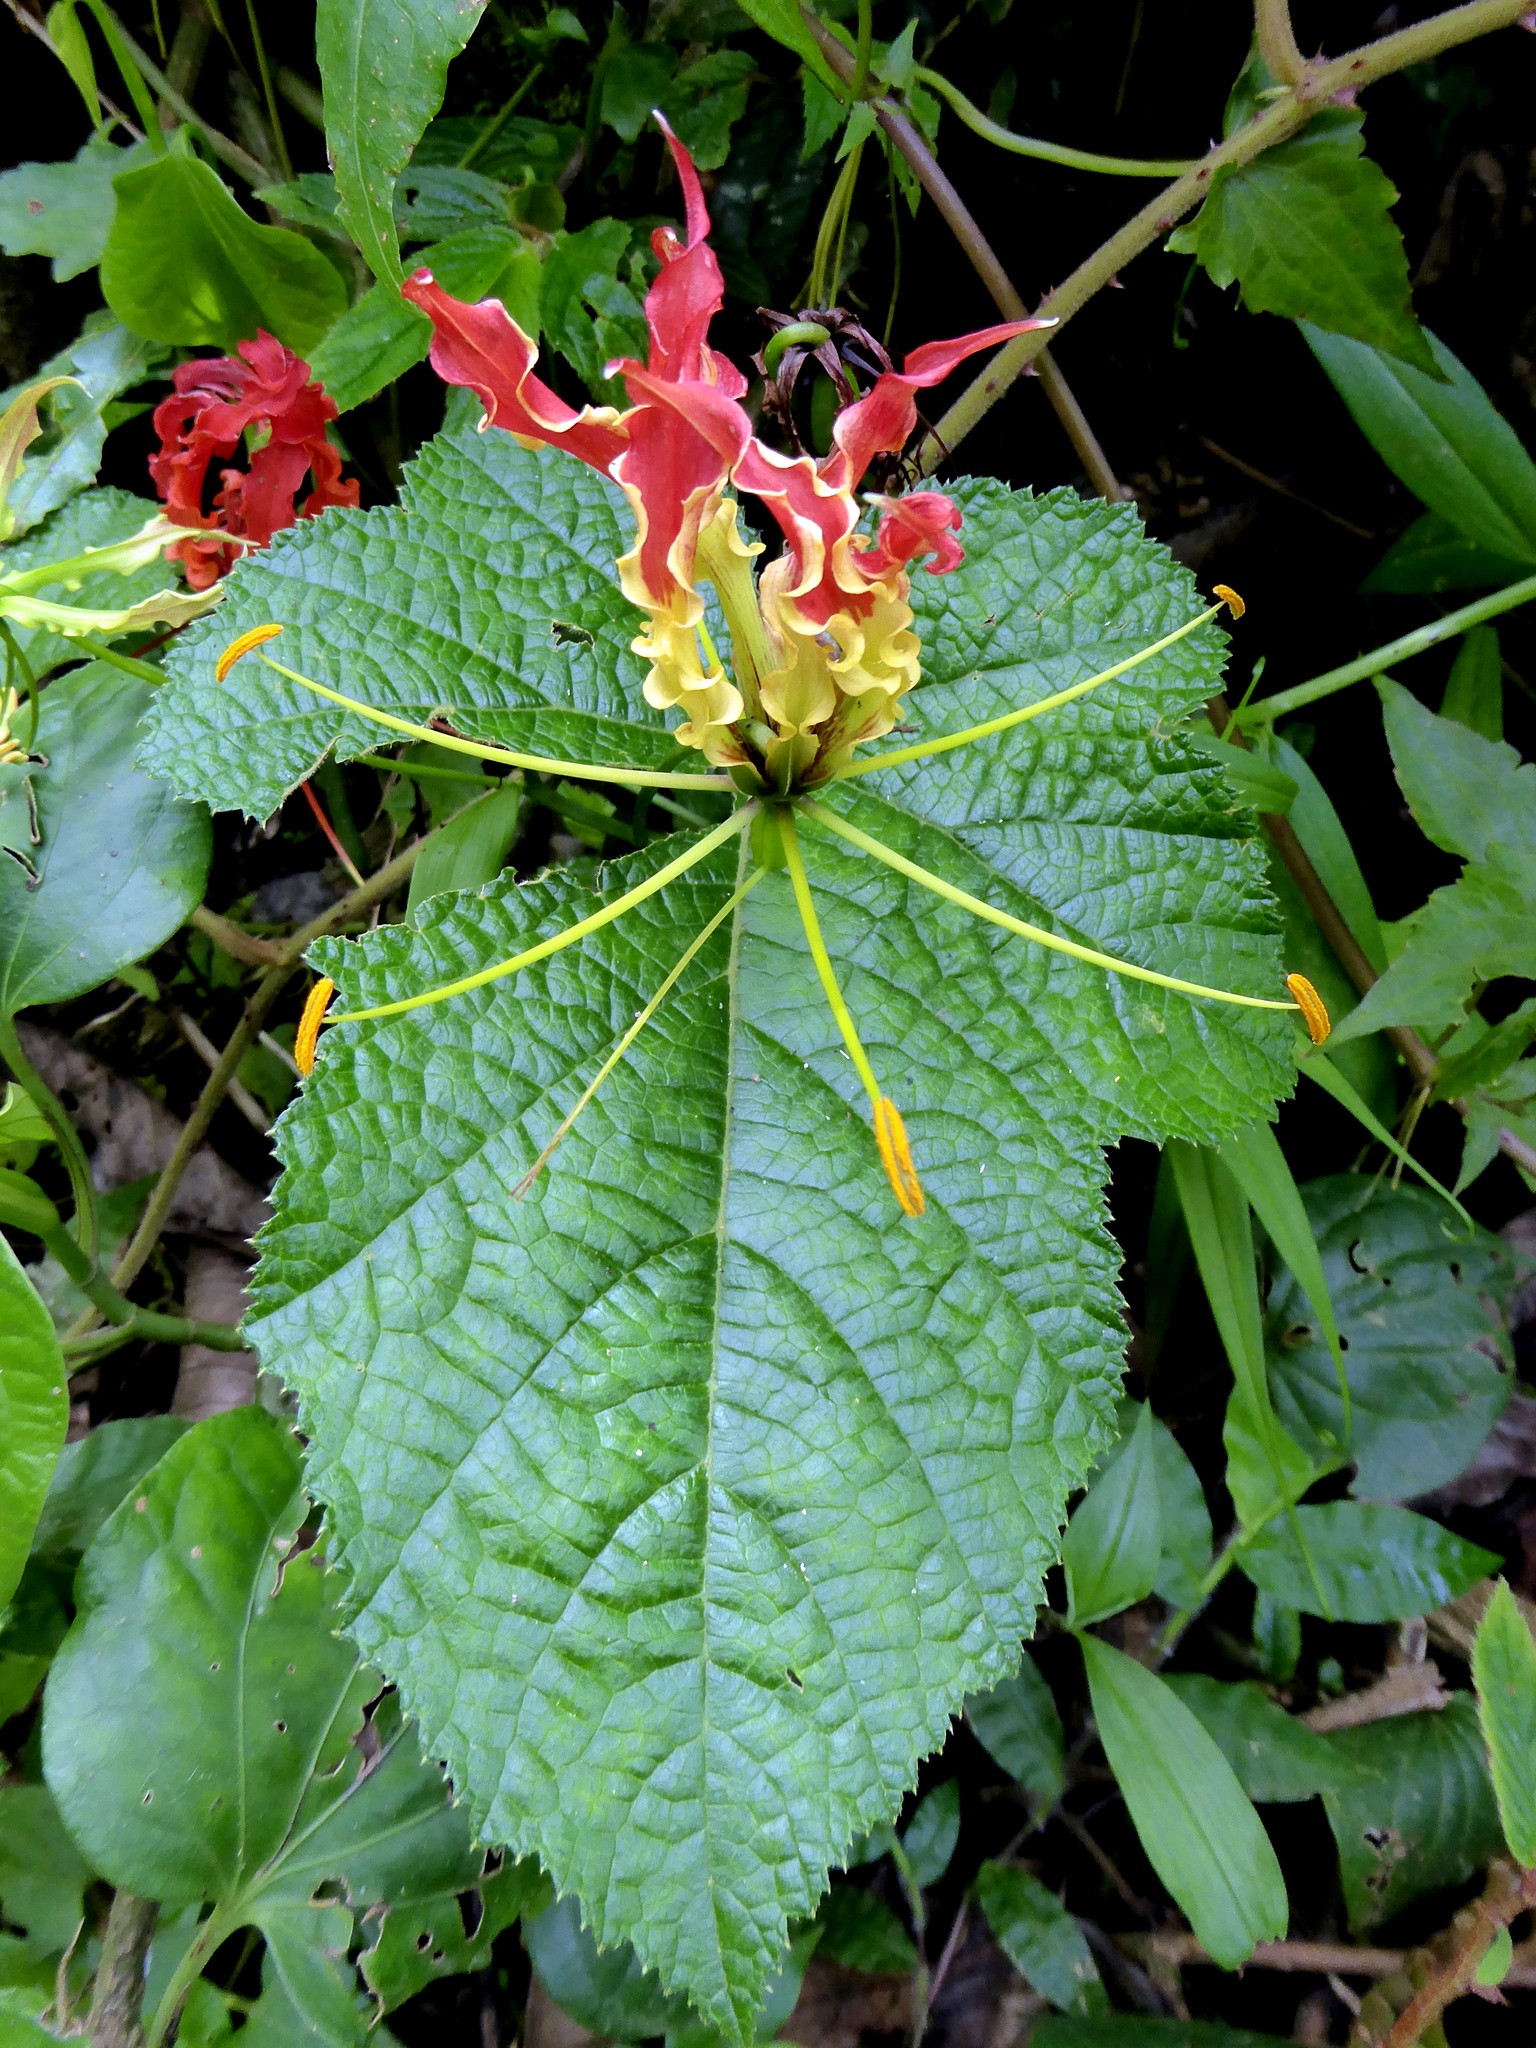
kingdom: Plantae
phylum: Tracheophyta
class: Liliopsida
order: Liliales
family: Colchicaceae
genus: Gloriosa
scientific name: Gloriosa superba
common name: Flame lily
